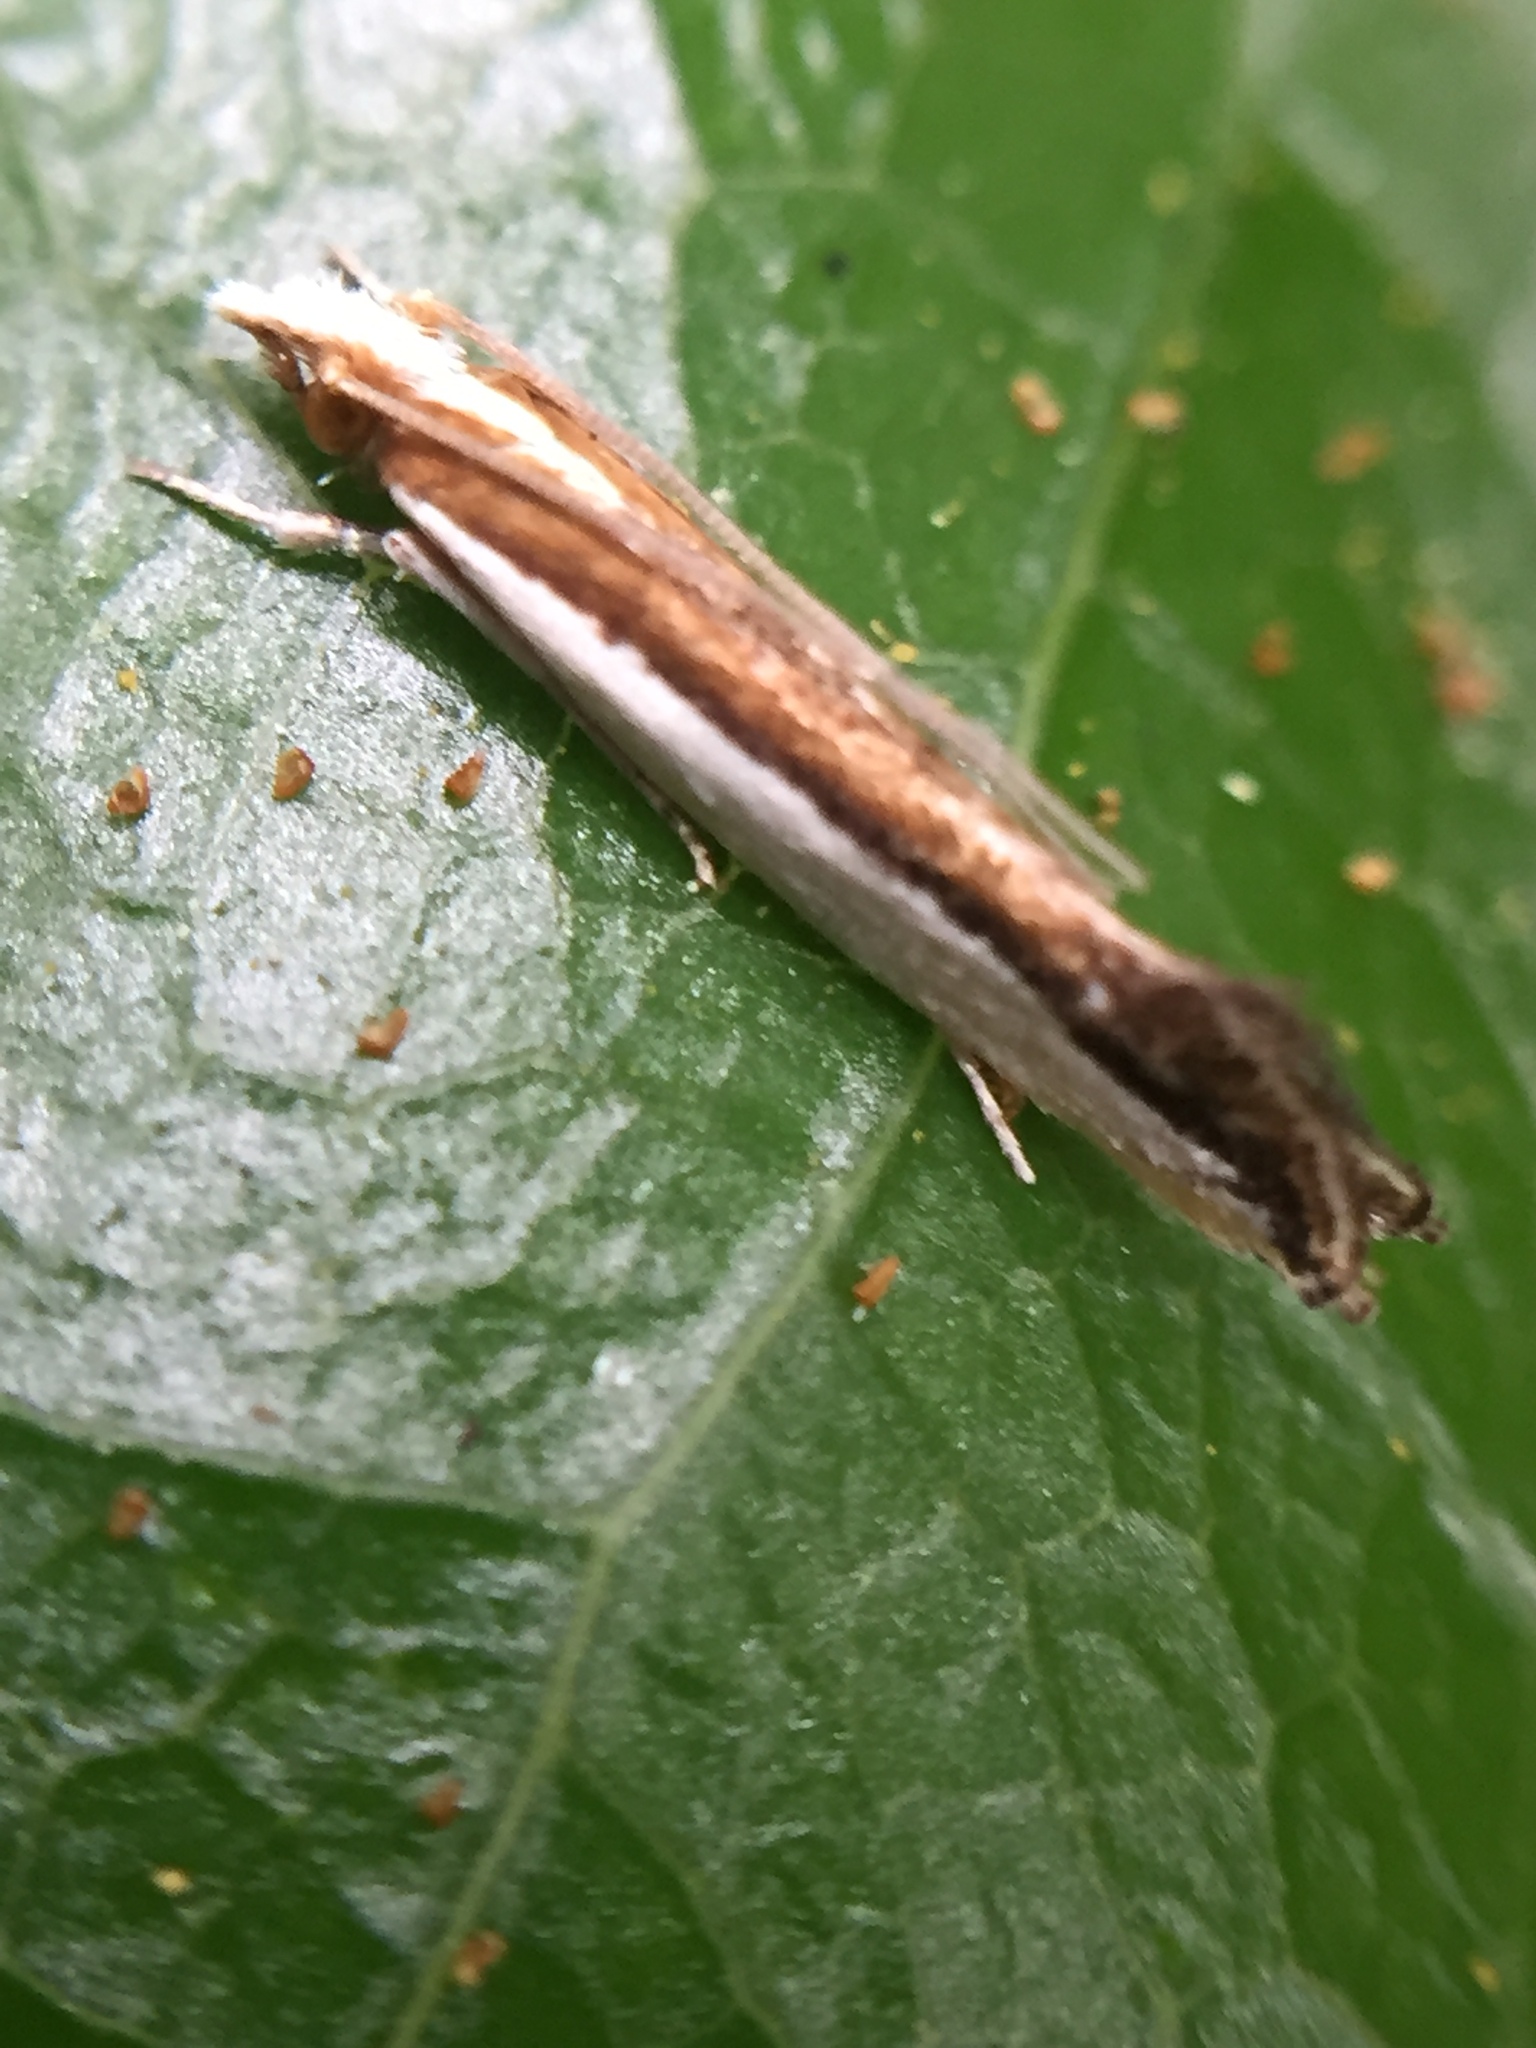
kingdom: Animalia
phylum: Arthropoda
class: Insecta
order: Lepidoptera
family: Tineidae
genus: Erechthias
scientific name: Erechthias chionodira
